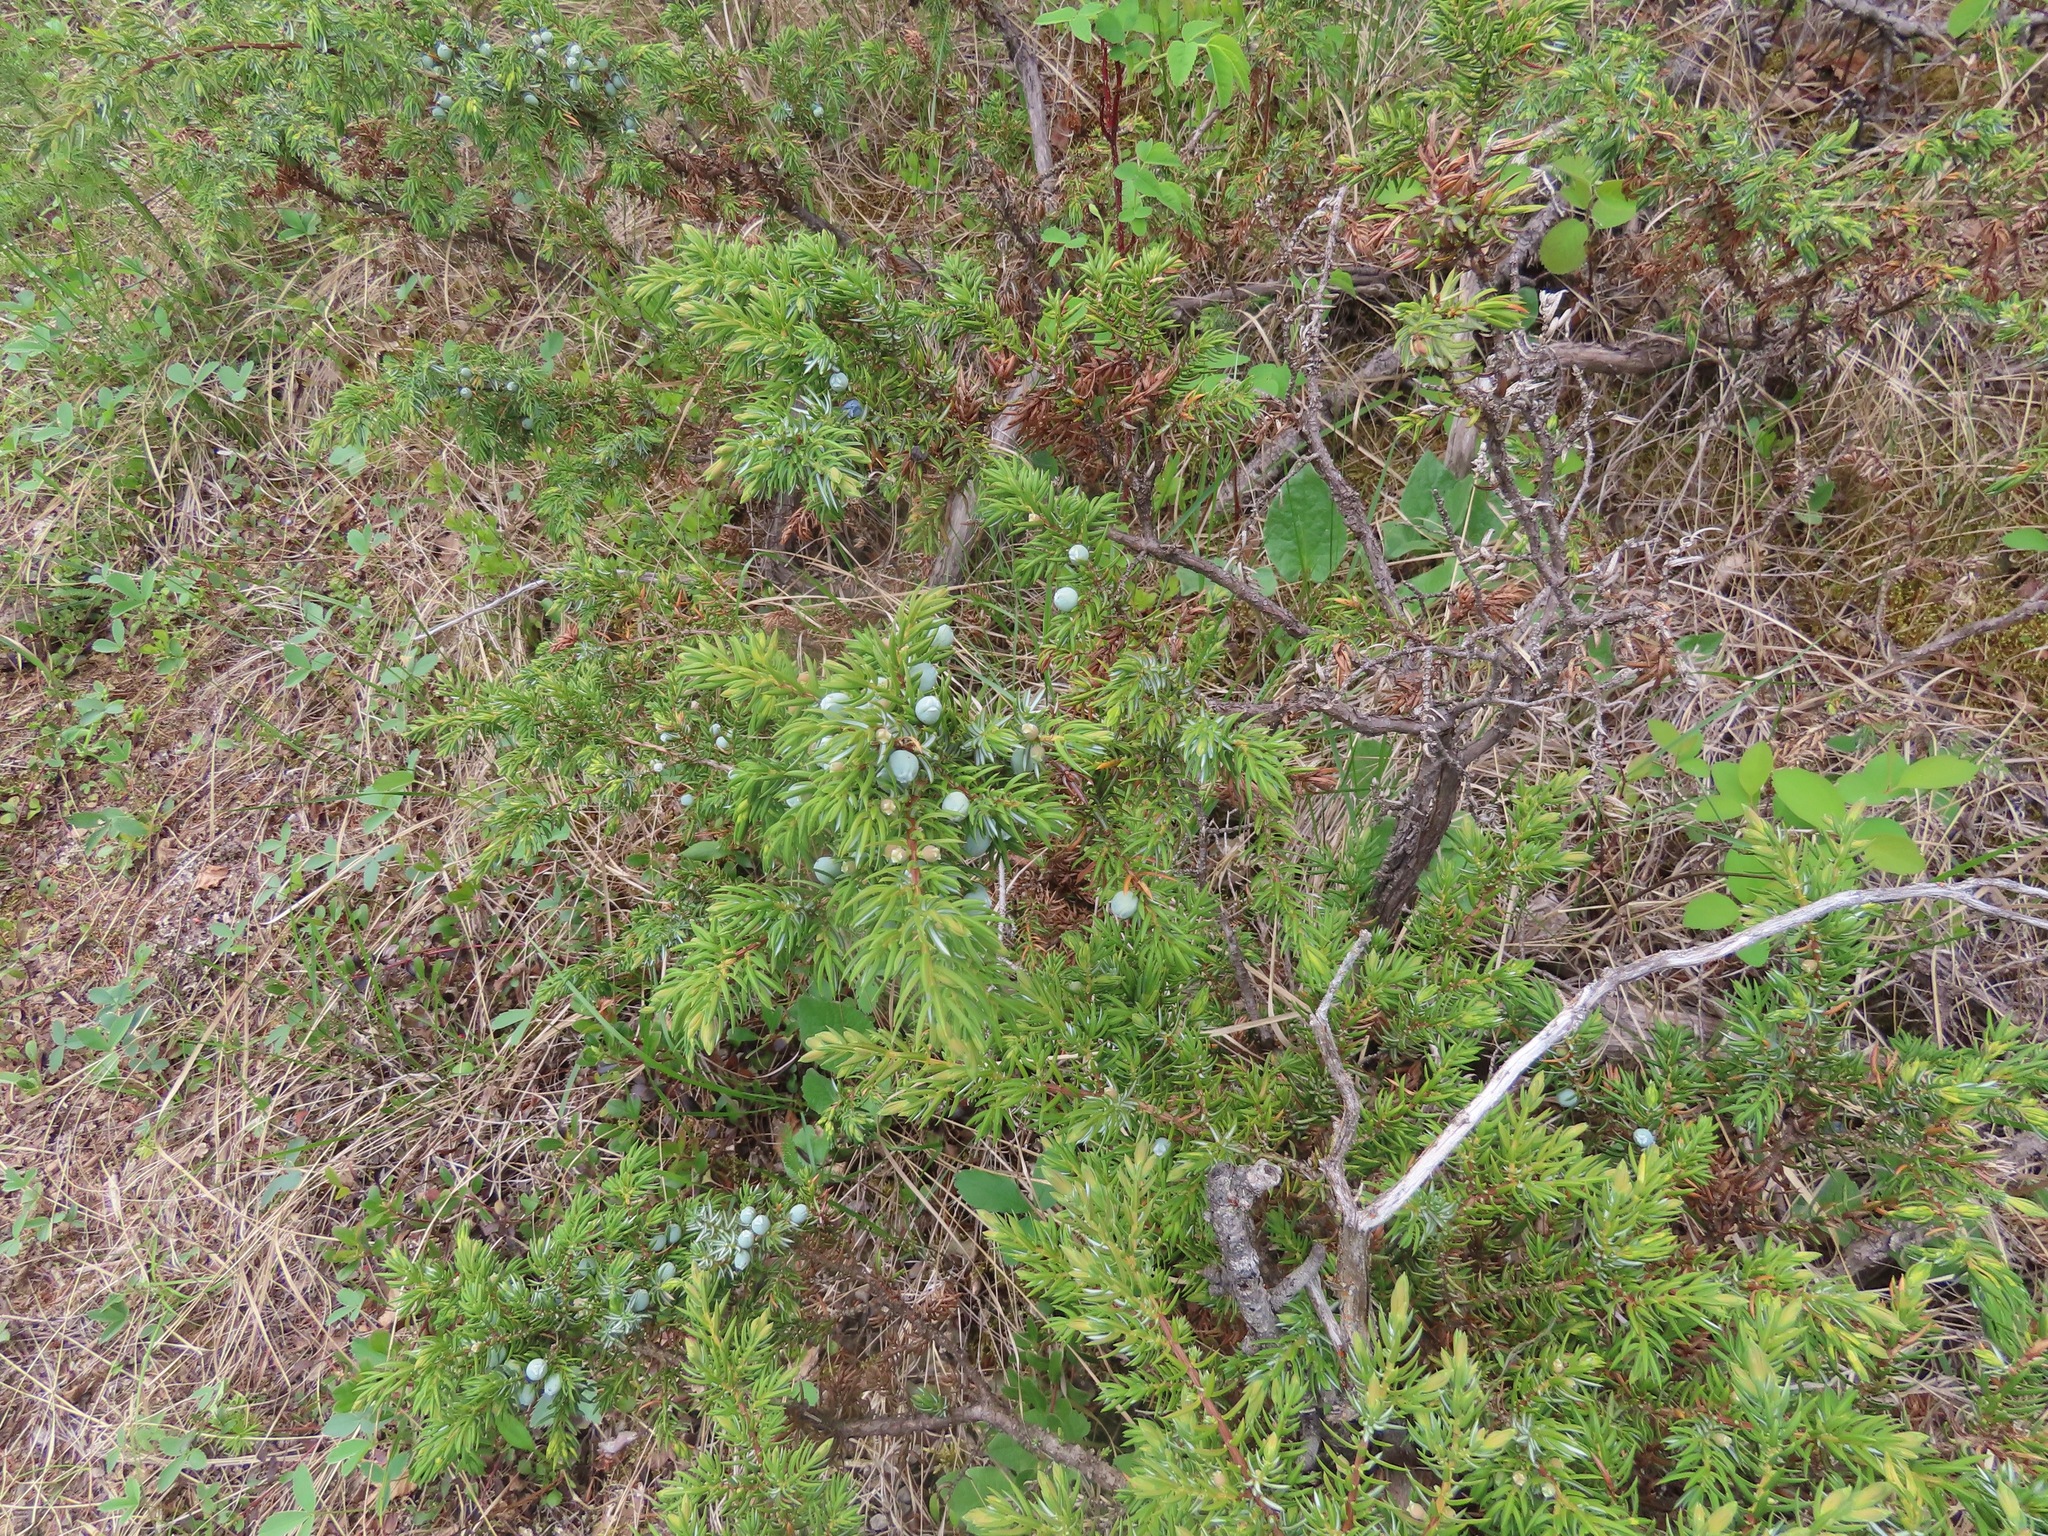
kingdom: Plantae
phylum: Tracheophyta
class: Pinopsida
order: Pinales
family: Cupressaceae
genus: Juniperus
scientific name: Juniperus communis
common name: Common juniper
